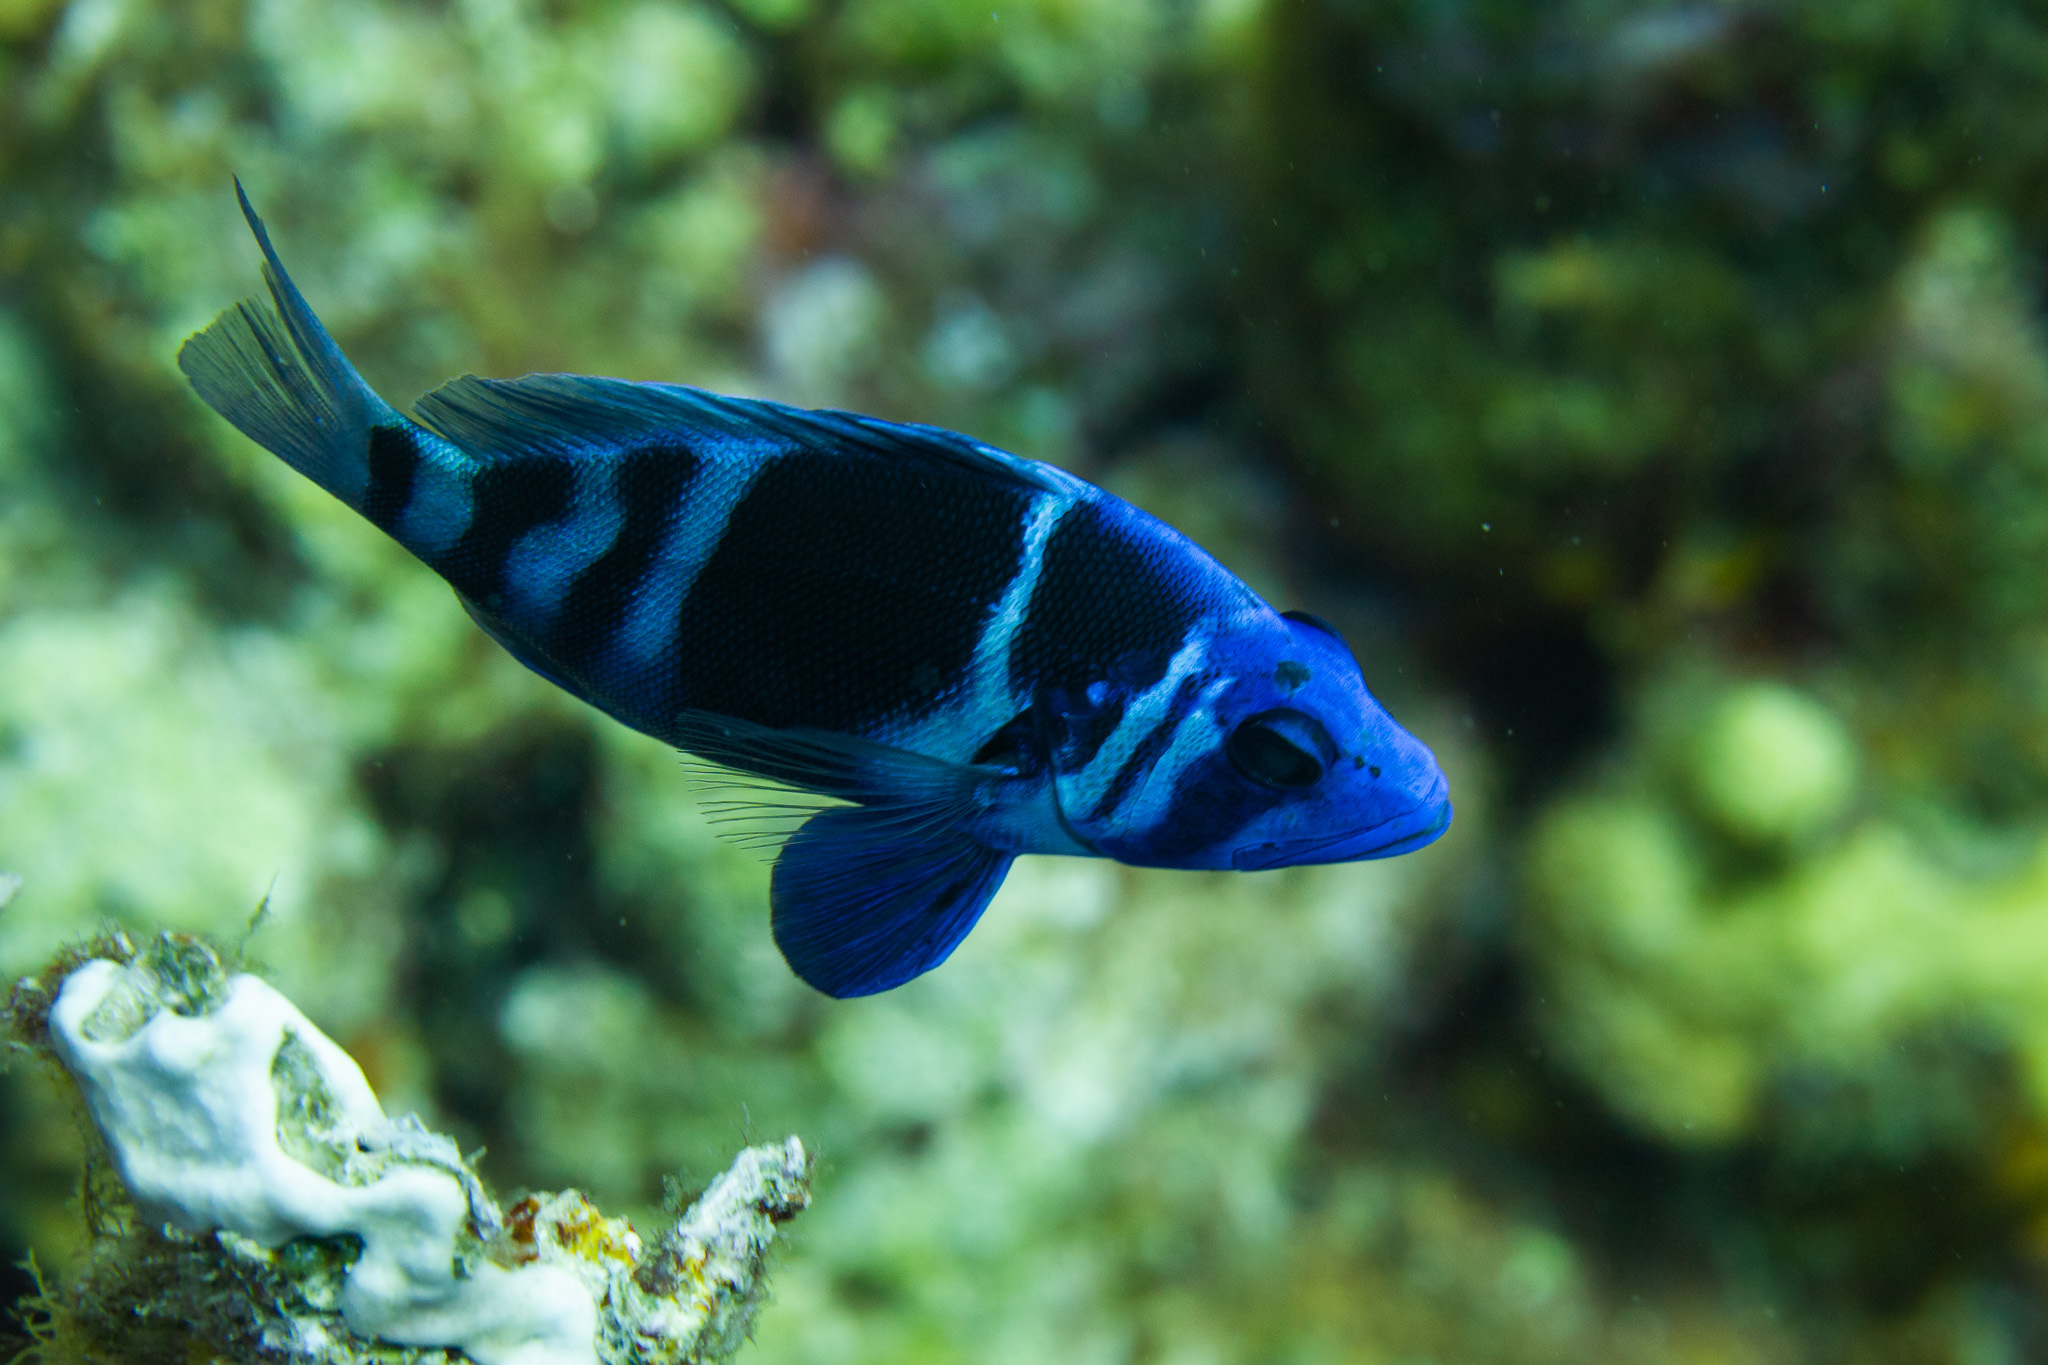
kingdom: Animalia
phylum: Chordata
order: Perciformes
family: Serranidae
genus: Hypoplectrus
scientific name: Hypoplectrus indigo
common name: Indigo hamlet
